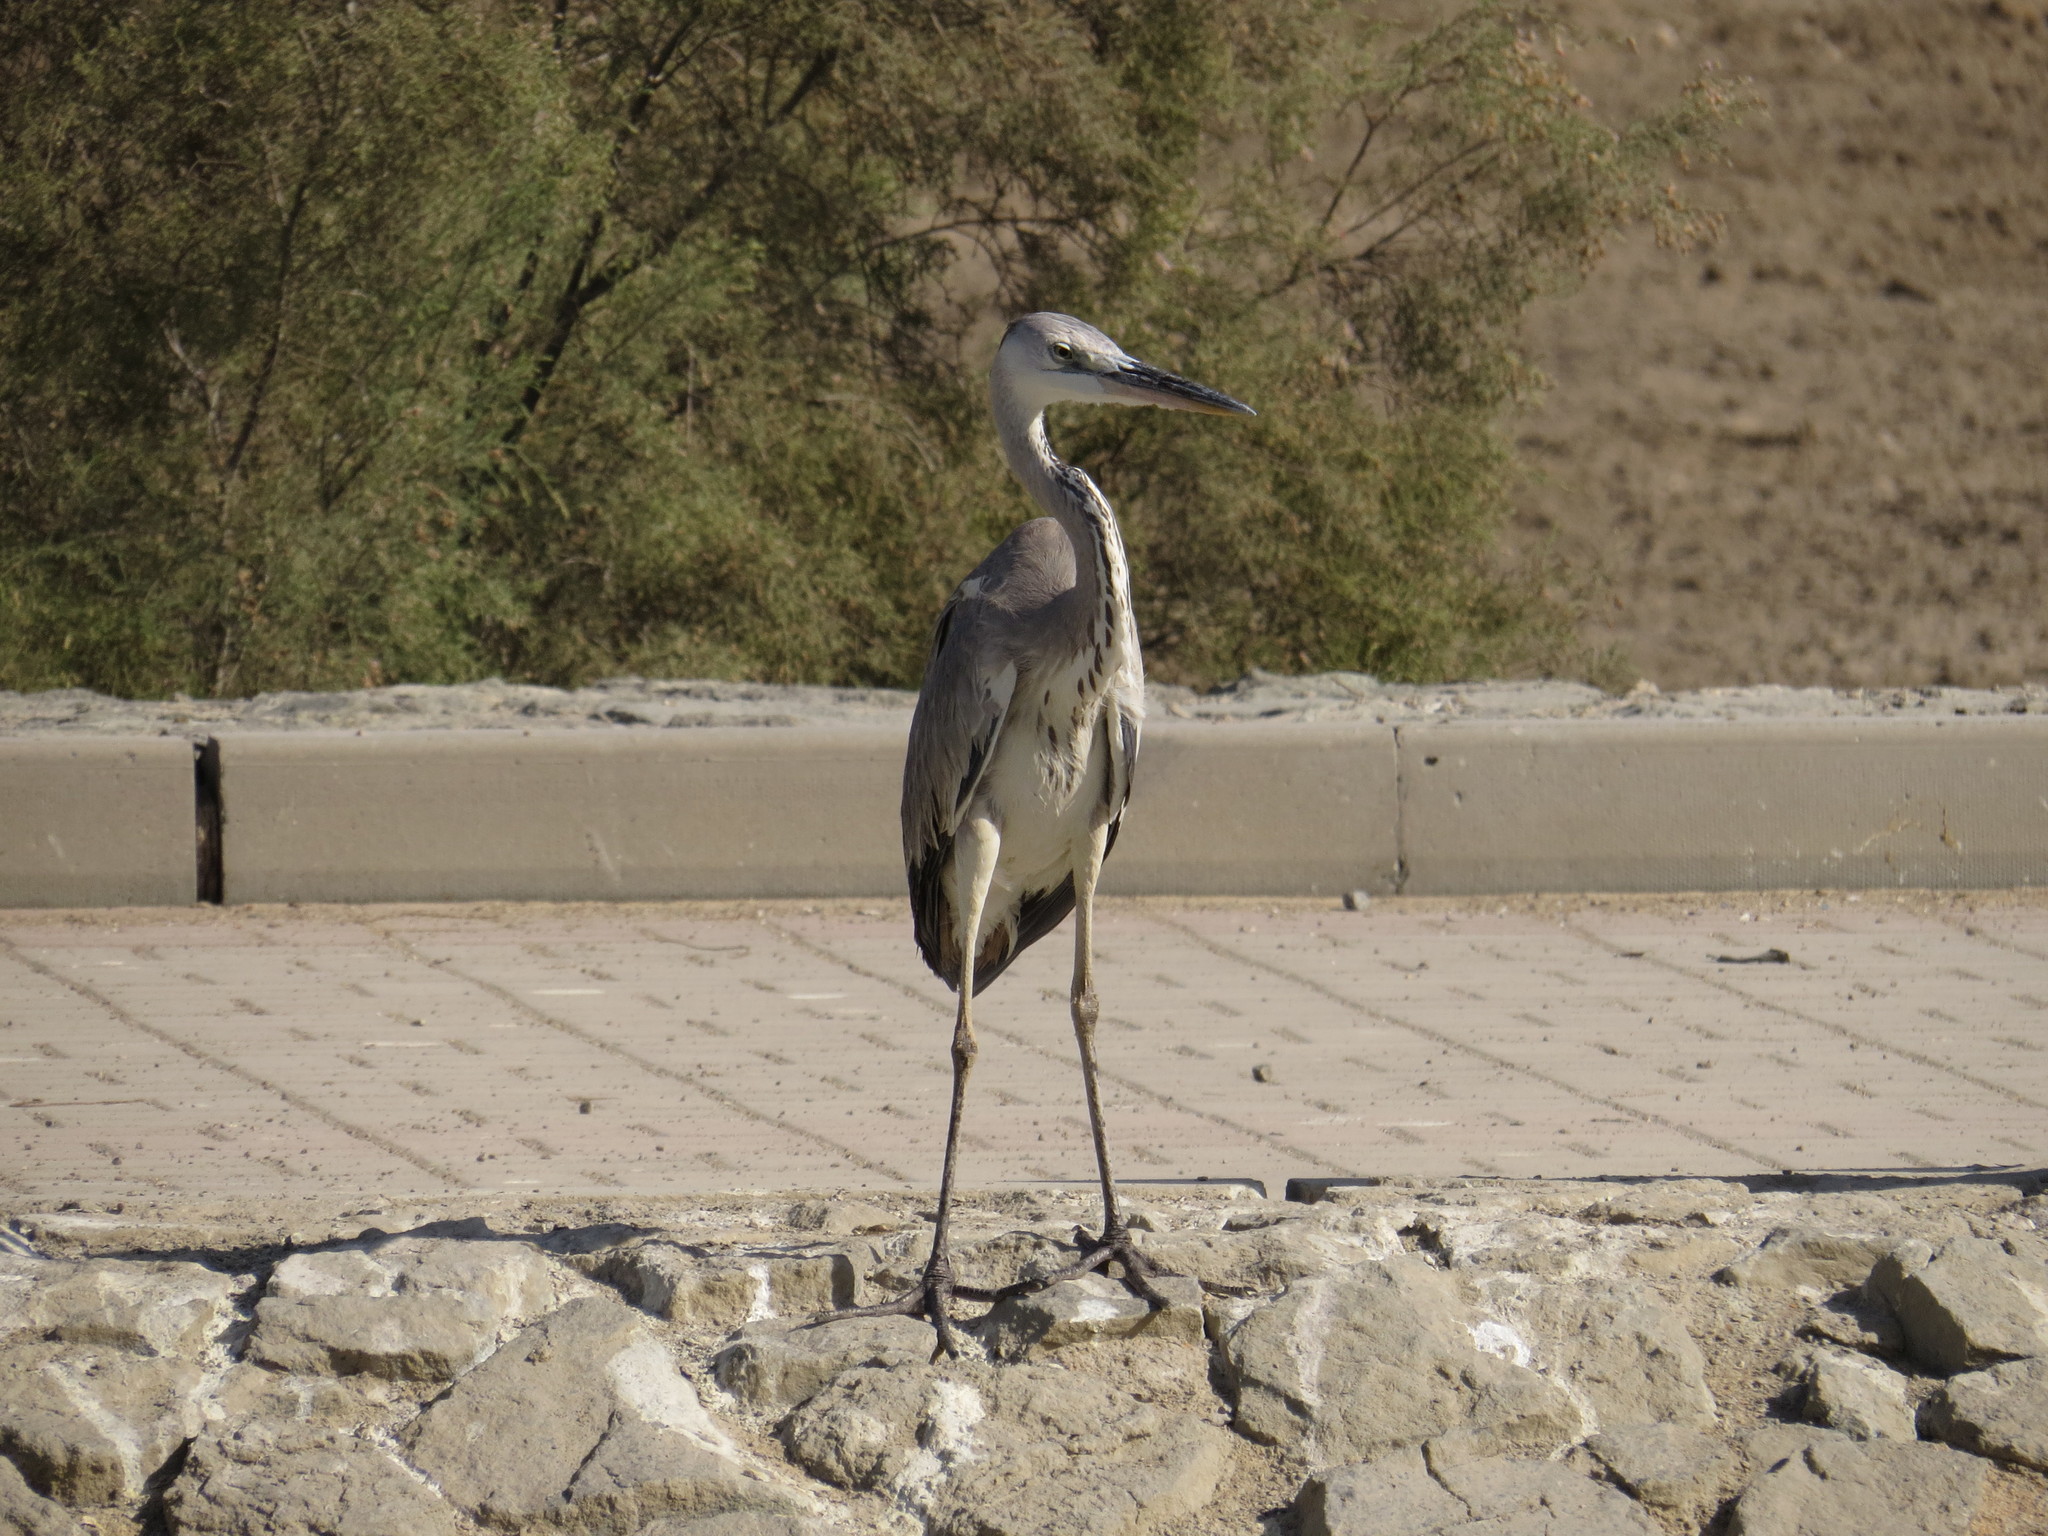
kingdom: Animalia
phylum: Chordata
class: Aves
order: Pelecaniformes
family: Ardeidae
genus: Ardea
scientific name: Ardea cinerea
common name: Grey heron
